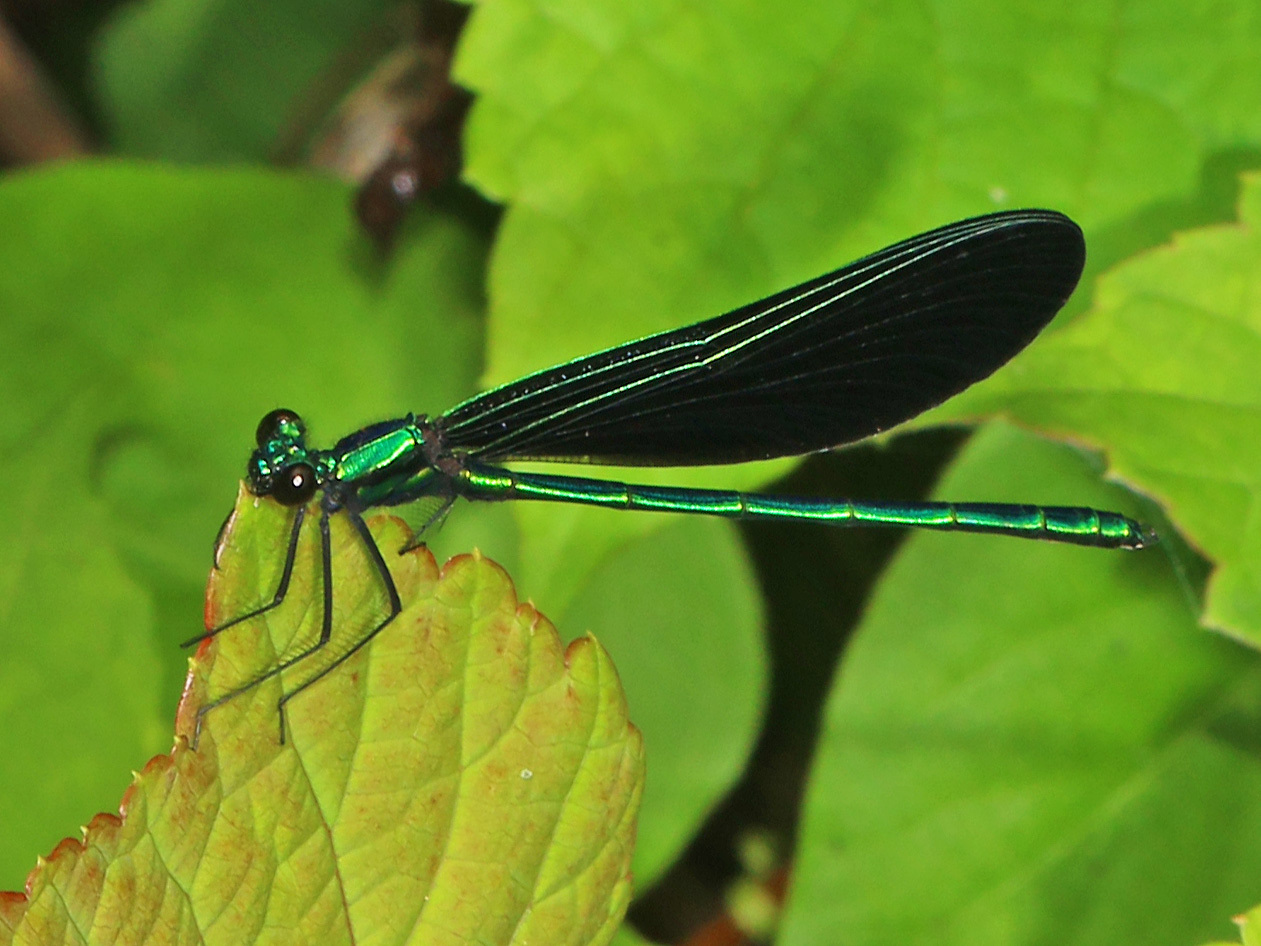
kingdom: Animalia
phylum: Arthropoda
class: Insecta
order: Odonata
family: Calopterygidae
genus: Calopteryx
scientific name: Calopteryx maculata
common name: Ebony jewelwing
